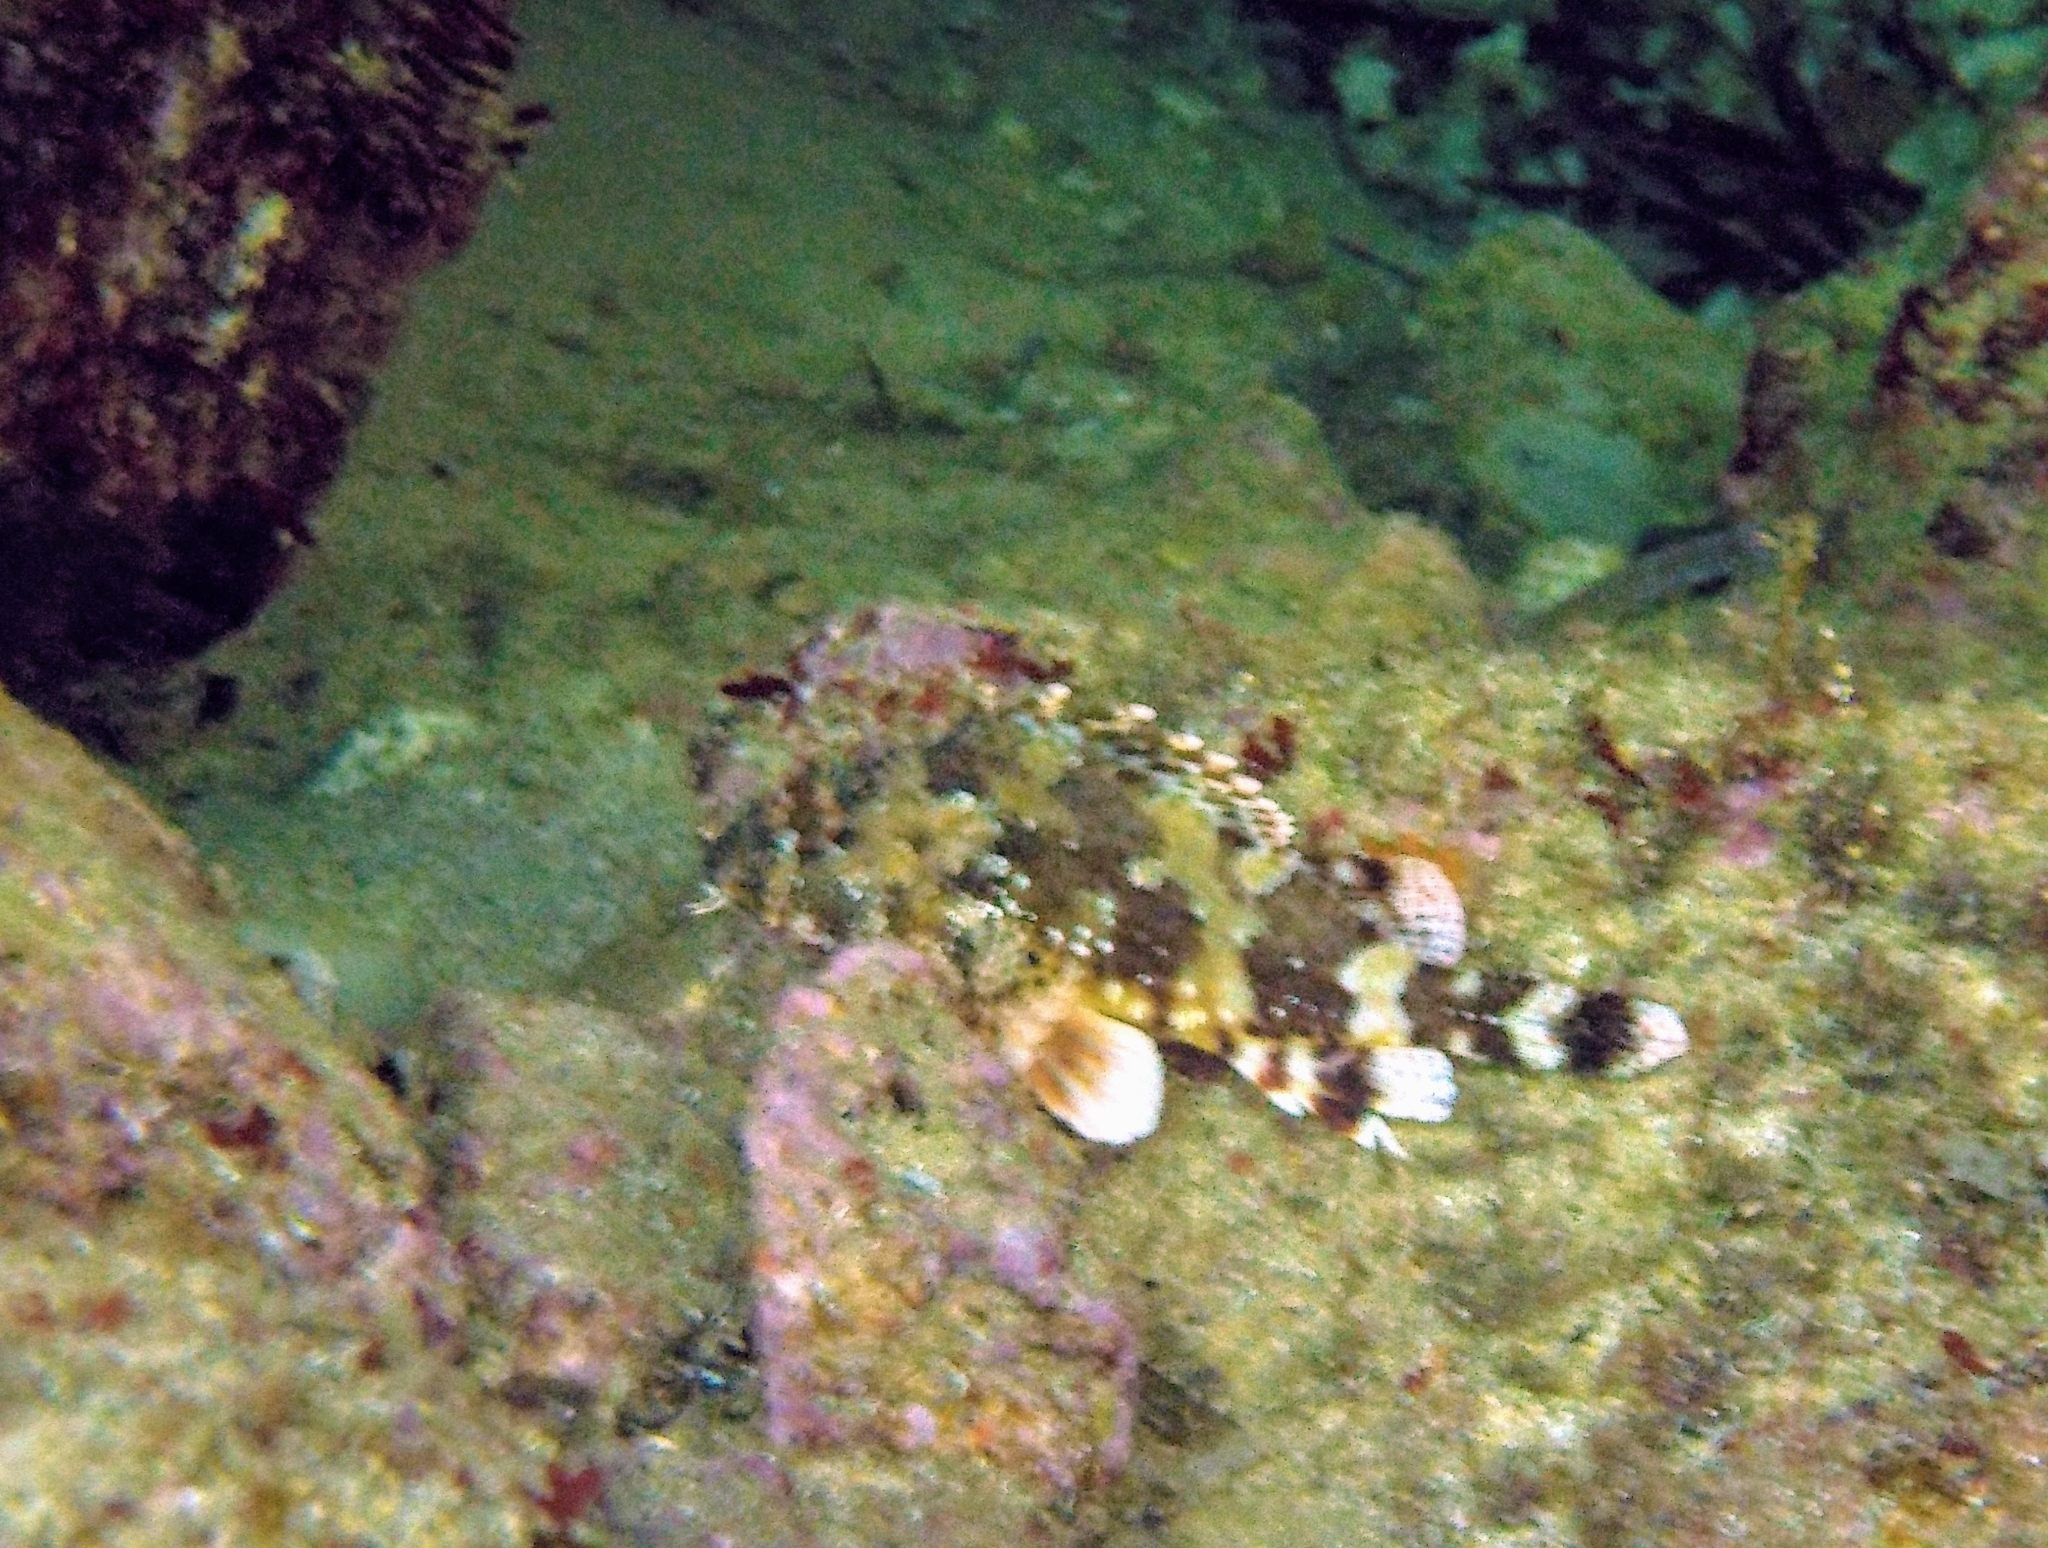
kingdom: Animalia
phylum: Chordata
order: Scorpaeniformes
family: Scorpaenidae
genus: Scorpaena
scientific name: Scorpaena maderensis
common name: Madeira rockfish
